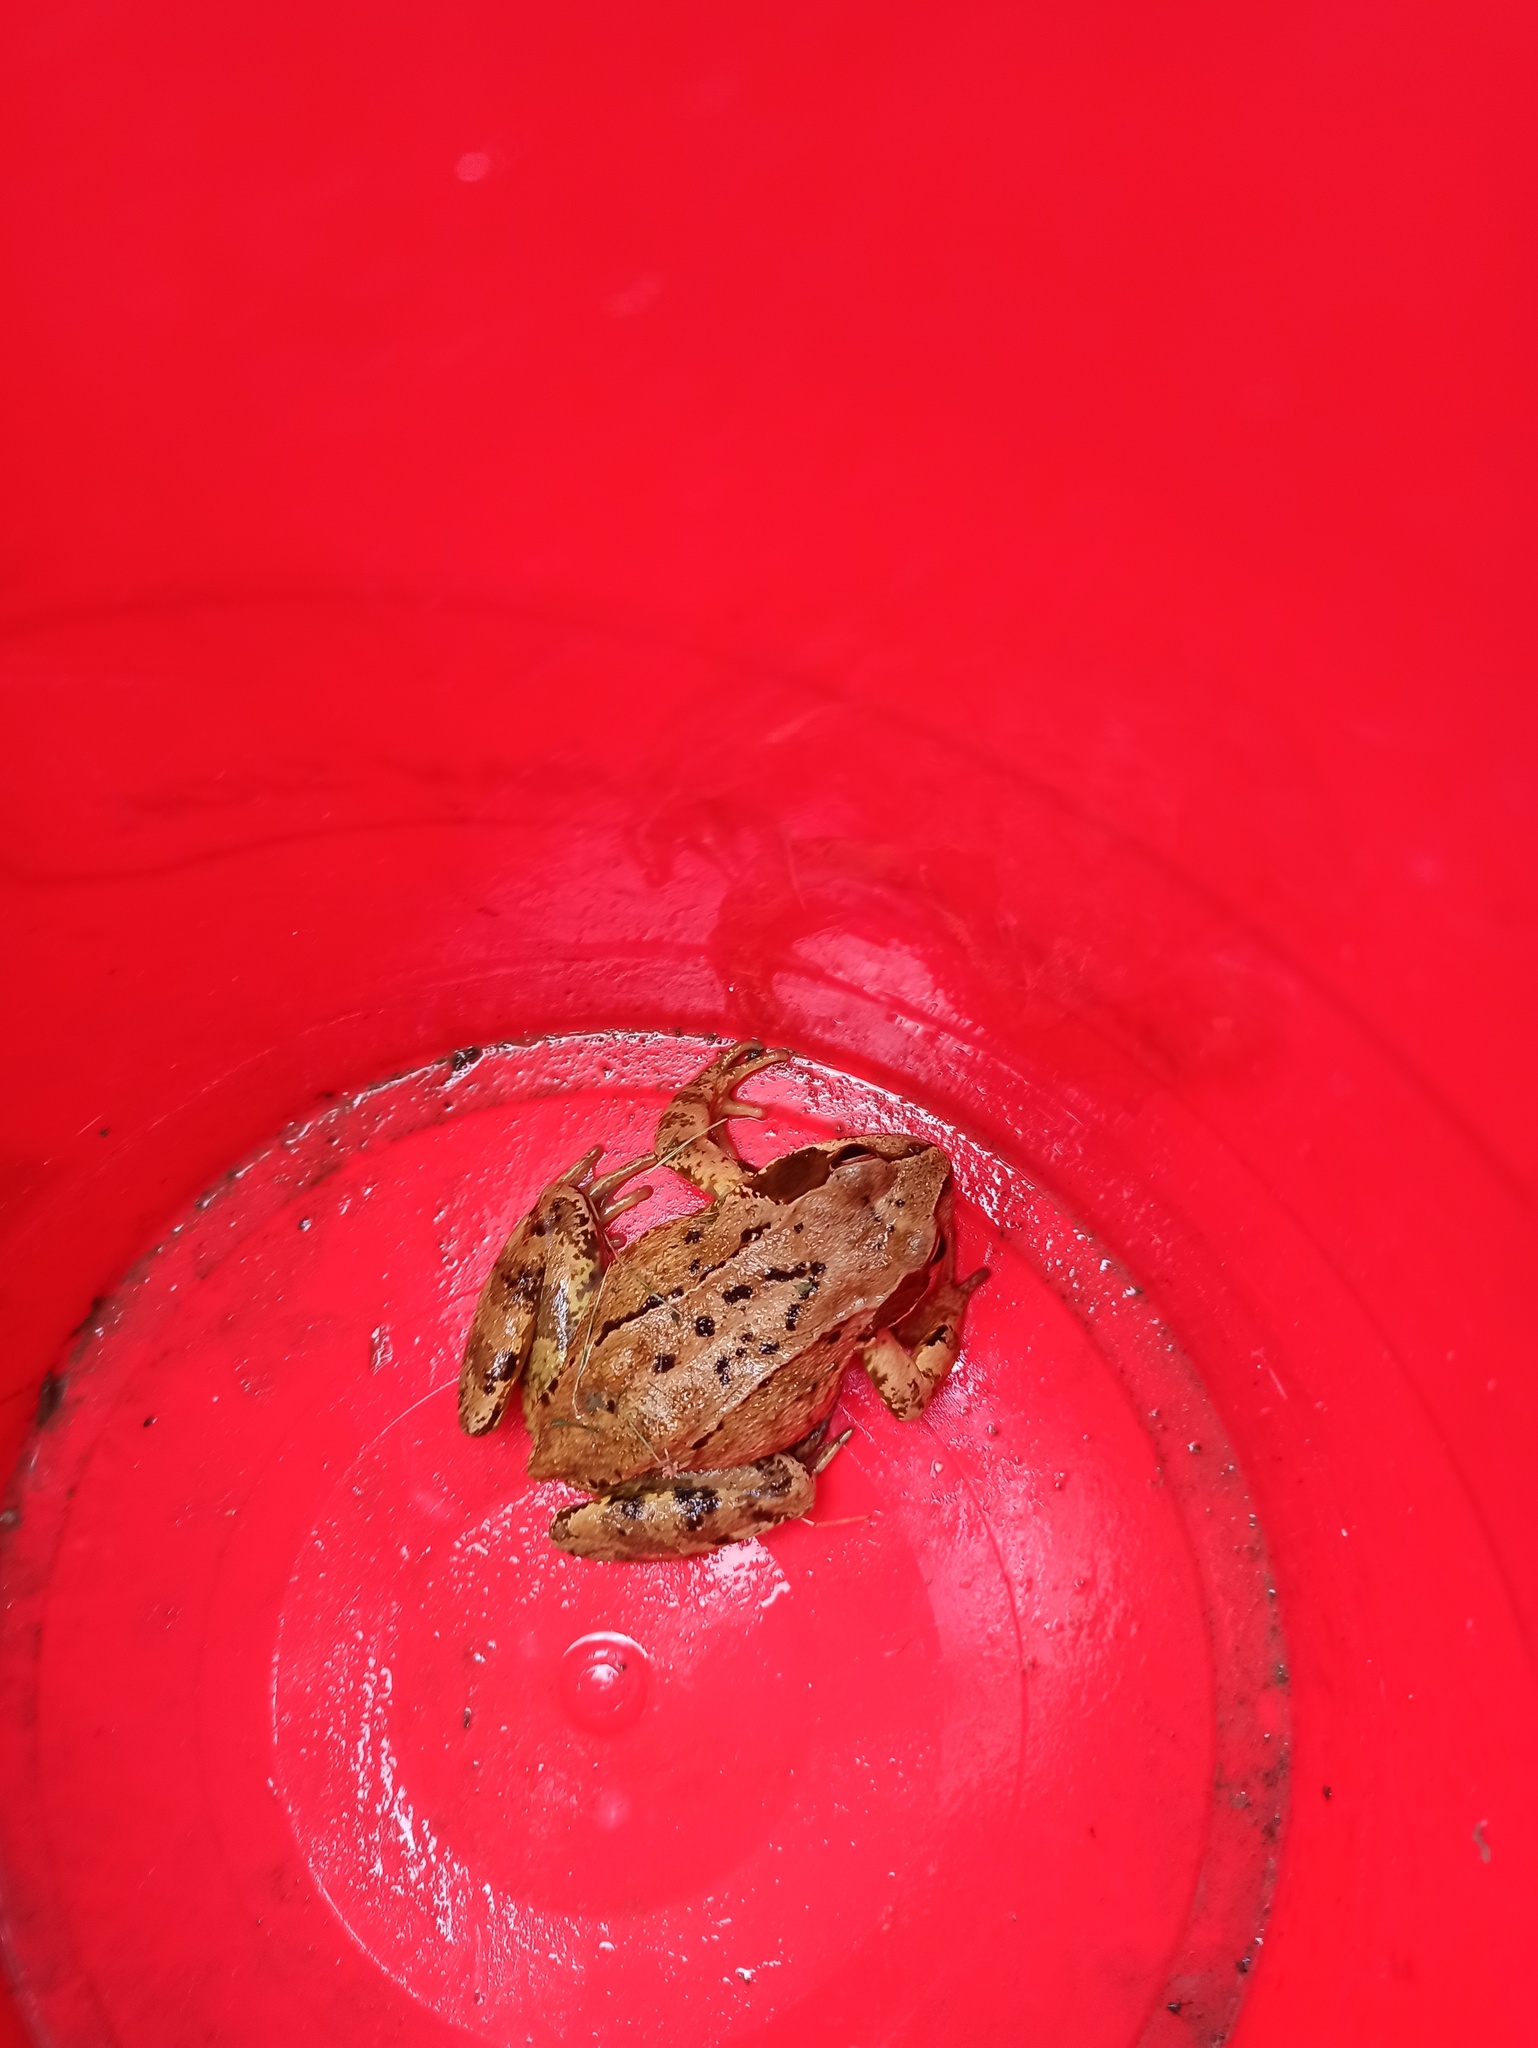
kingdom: Animalia
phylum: Chordata
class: Amphibia
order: Anura
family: Ranidae
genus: Rana
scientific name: Rana temporaria
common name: Common frog
